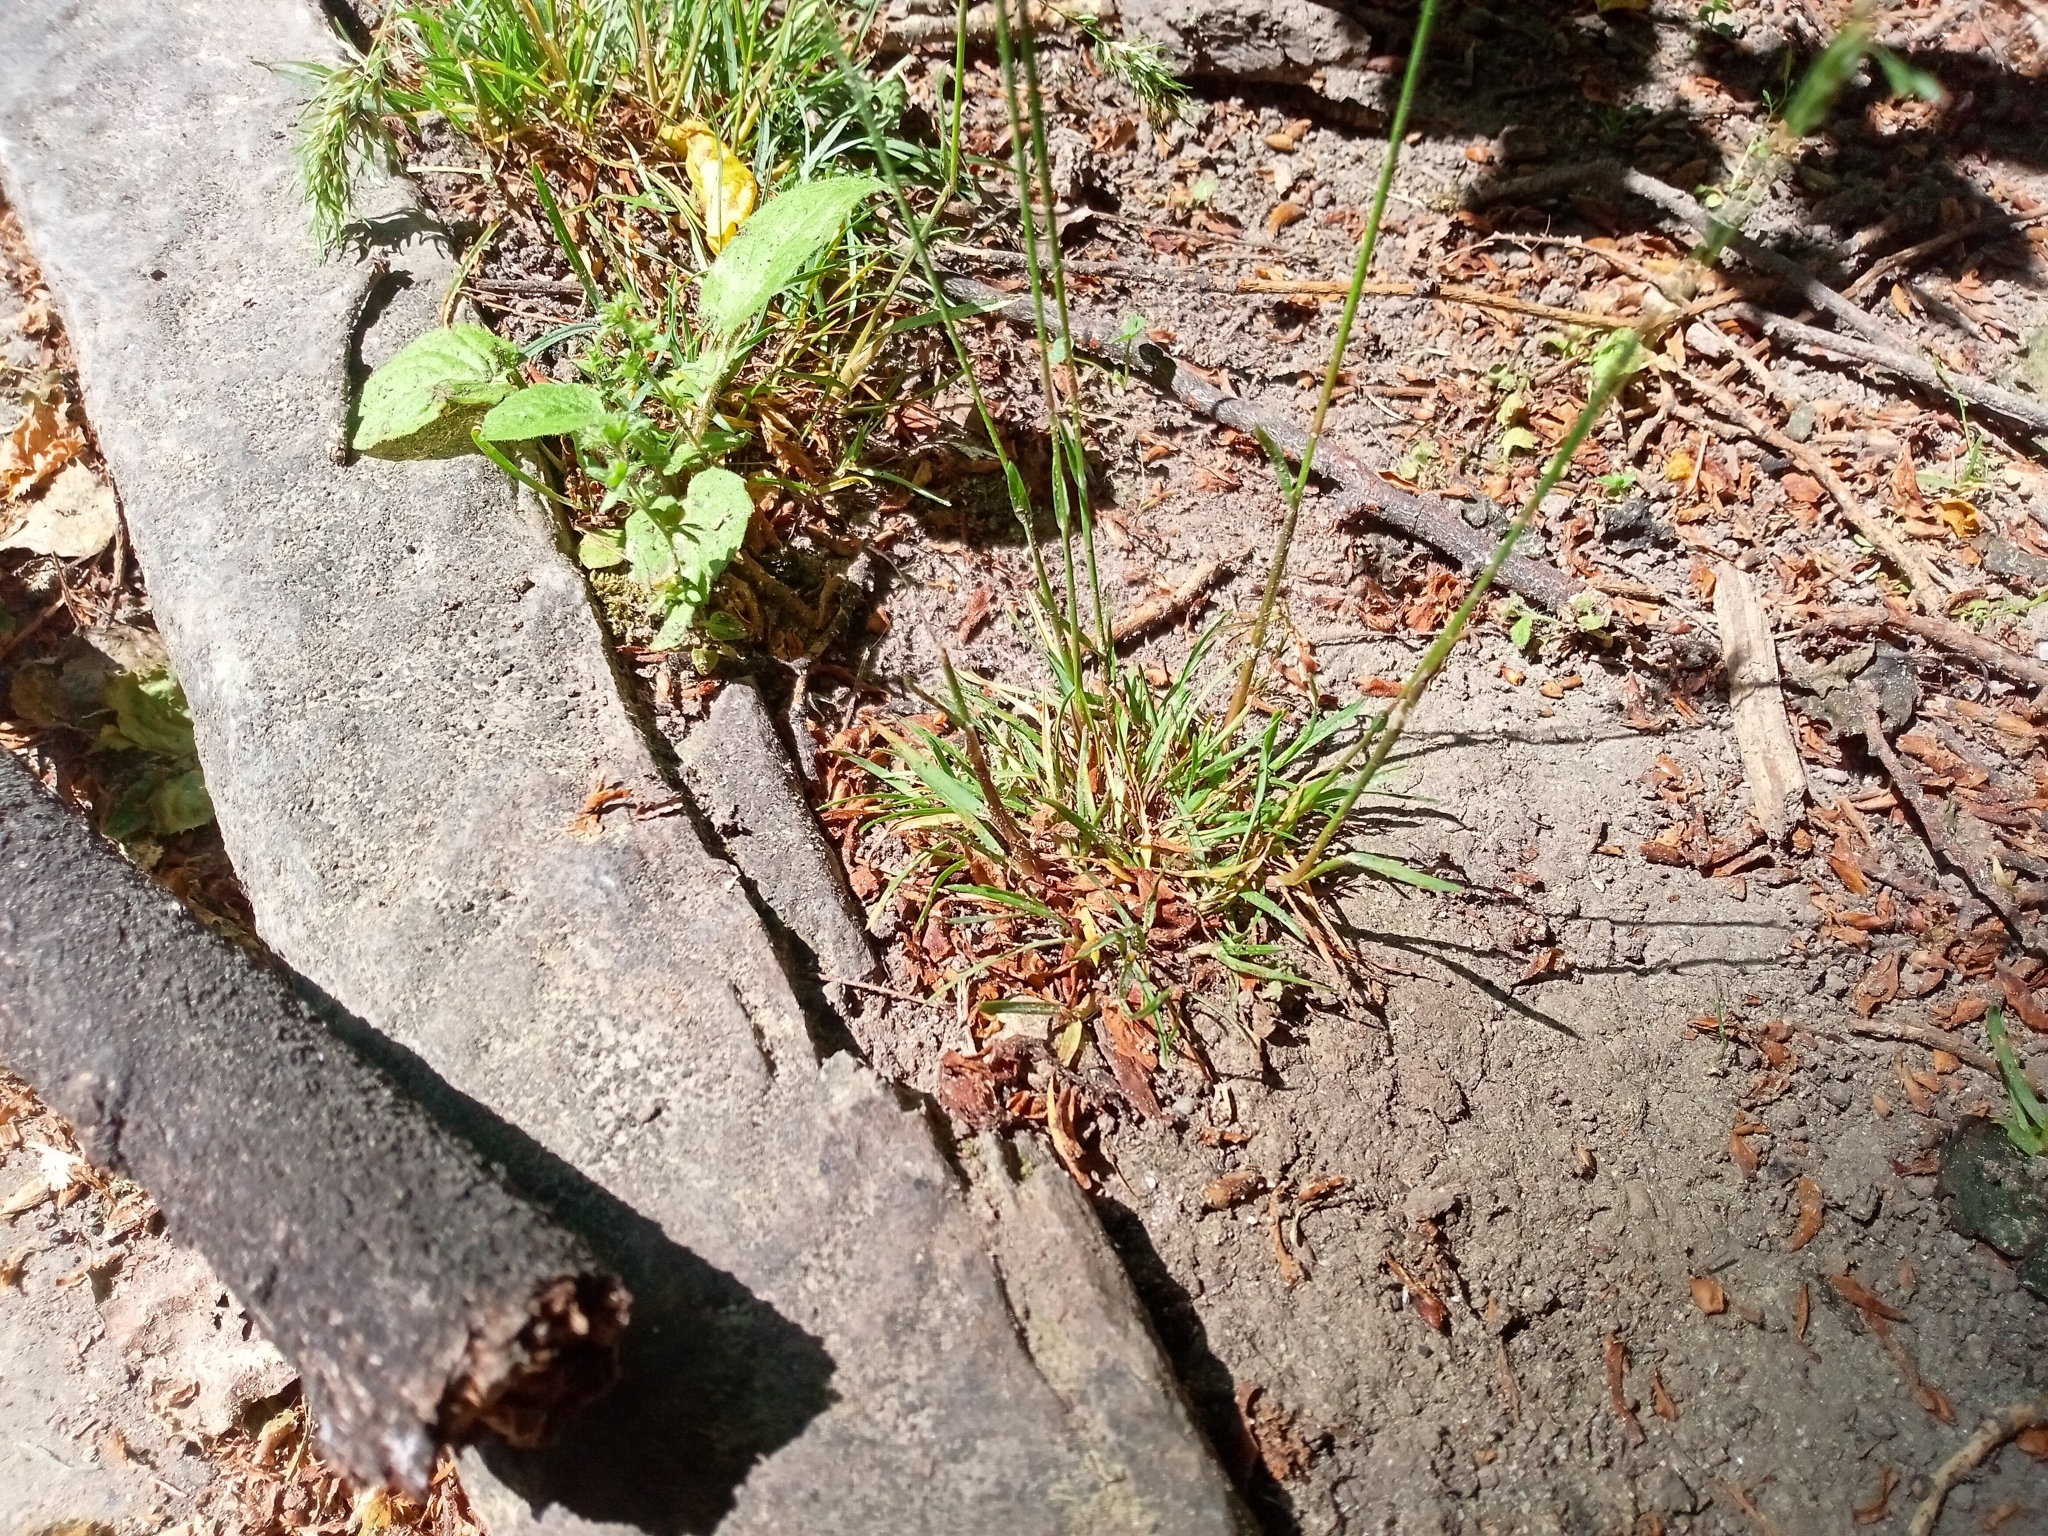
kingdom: Plantae
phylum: Tracheophyta
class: Liliopsida
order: Poales
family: Poaceae
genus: Poa
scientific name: Poa bulbosa
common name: Bulbous bluegrass
